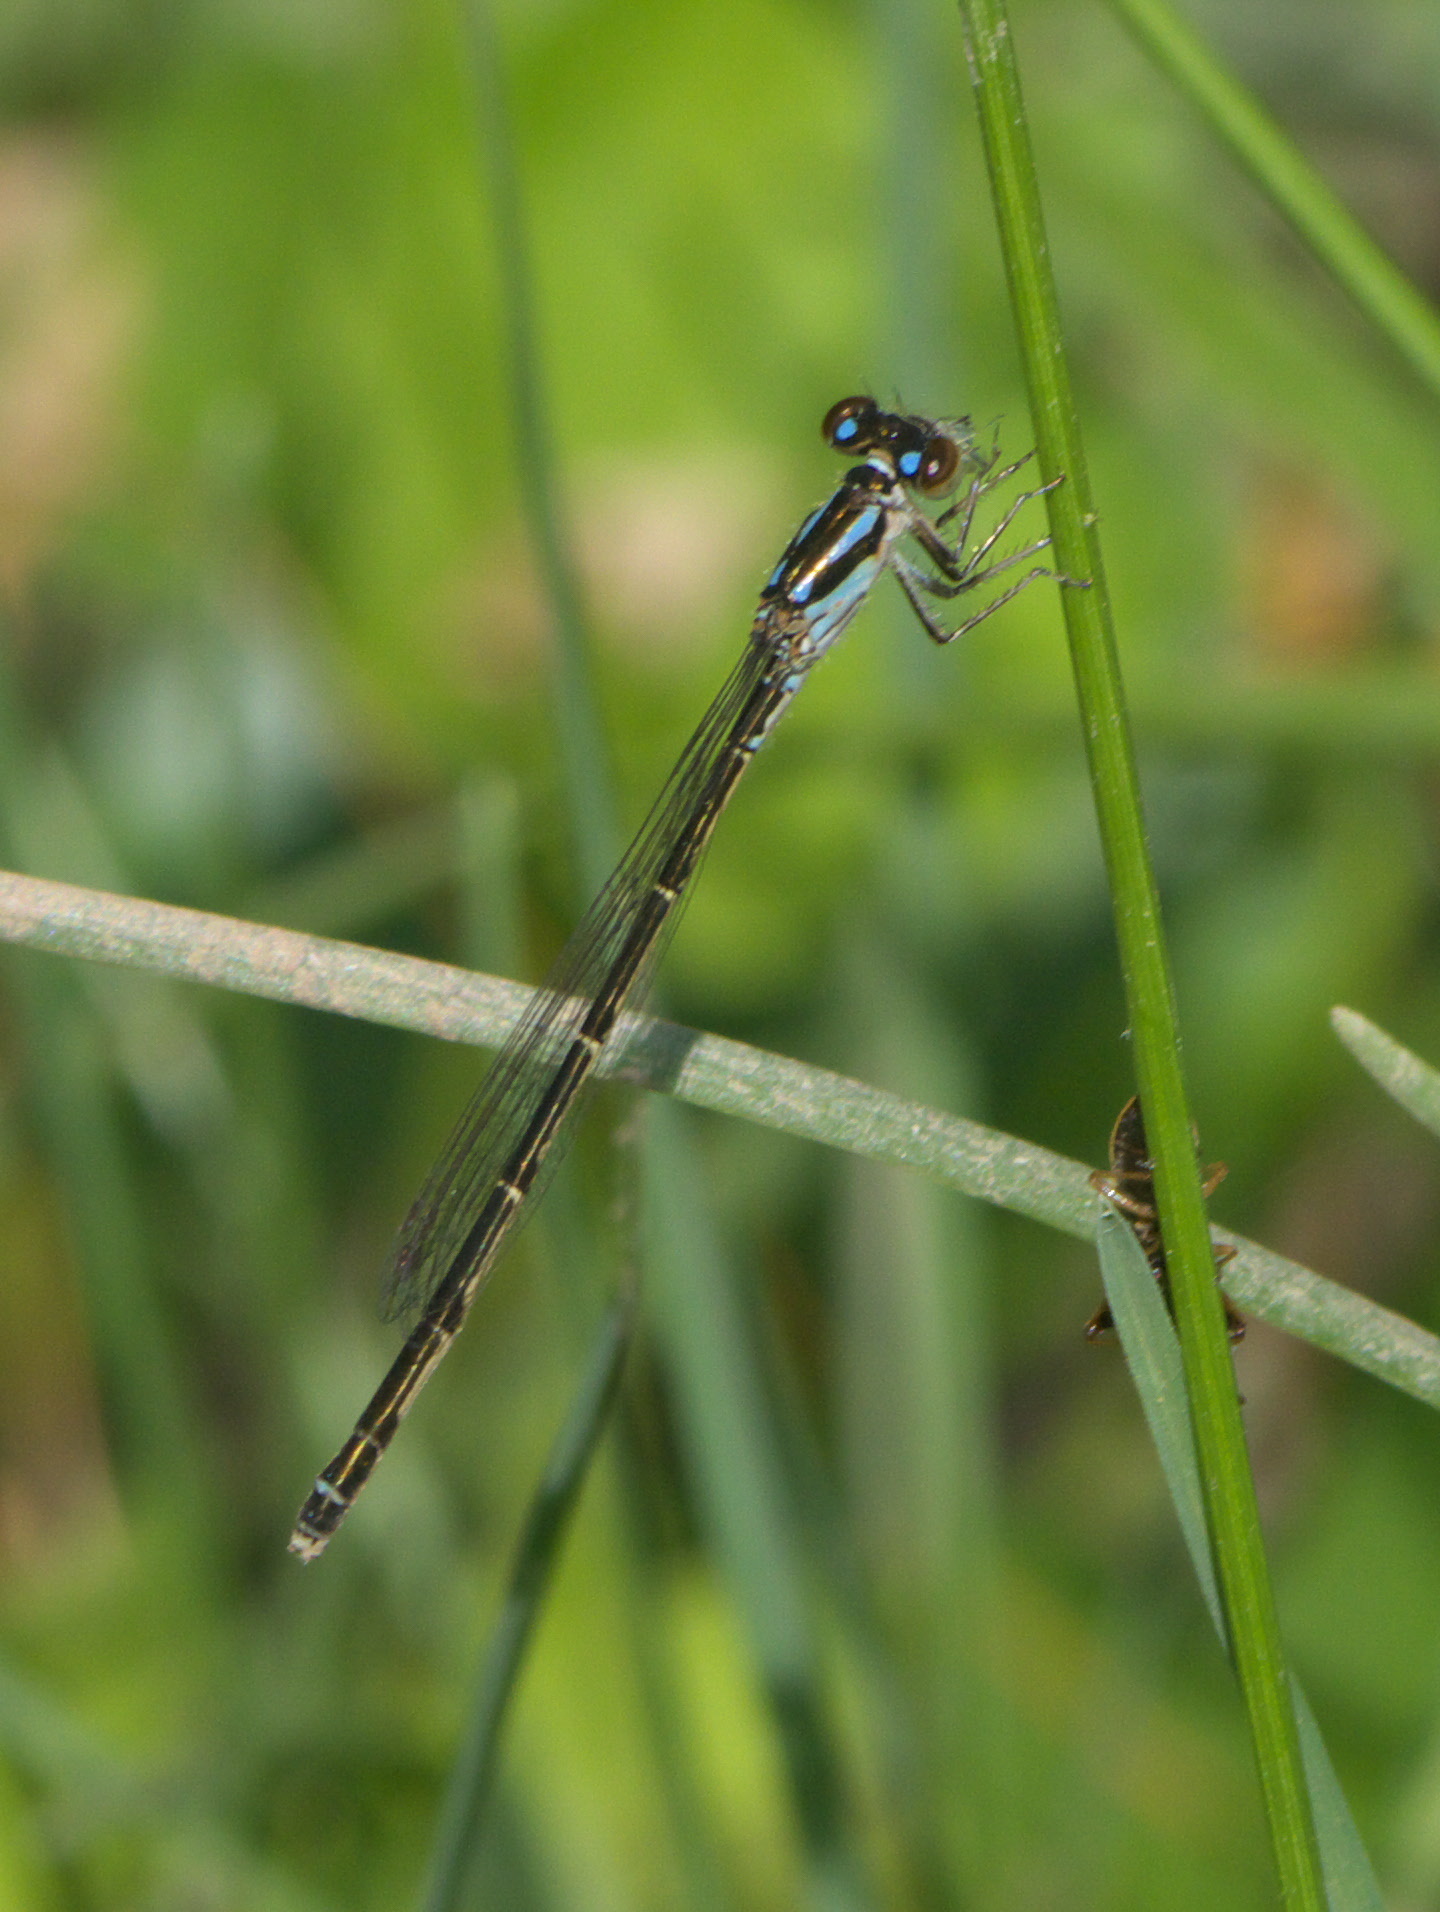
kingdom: Animalia
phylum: Arthropoda
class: Insecta
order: Odonata
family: Coenagrionidae
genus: Ischnura
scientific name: Ischnura posita
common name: Fragile forktail
